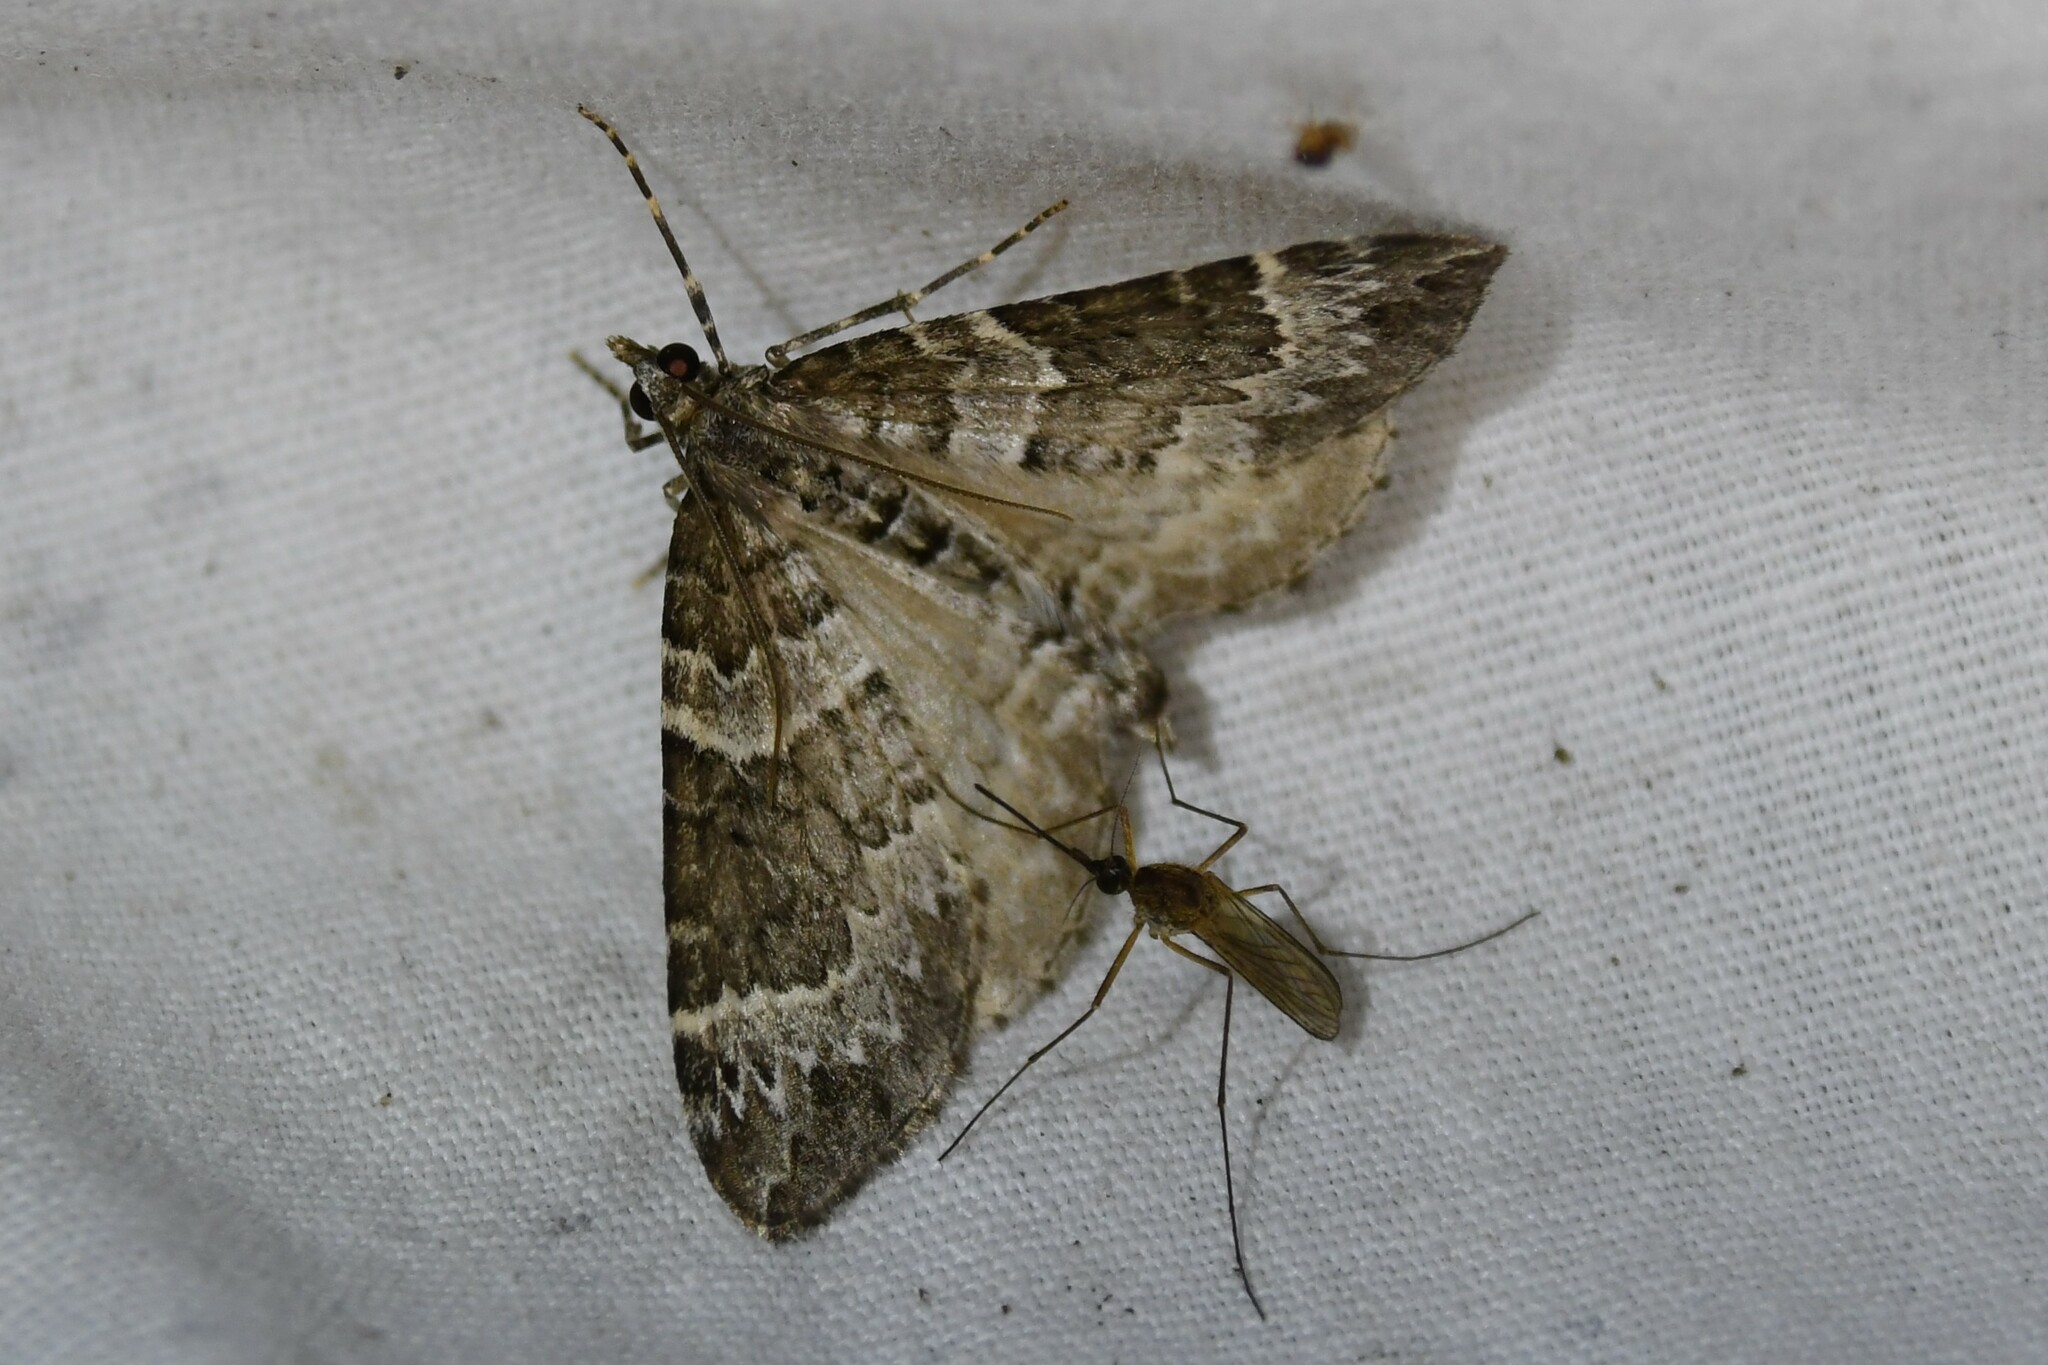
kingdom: Animalia
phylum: Arthropoda
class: Insecta
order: Lepidoptera
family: Geometridae
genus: Eulithis
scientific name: Eulithis explanata
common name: White eulithis
